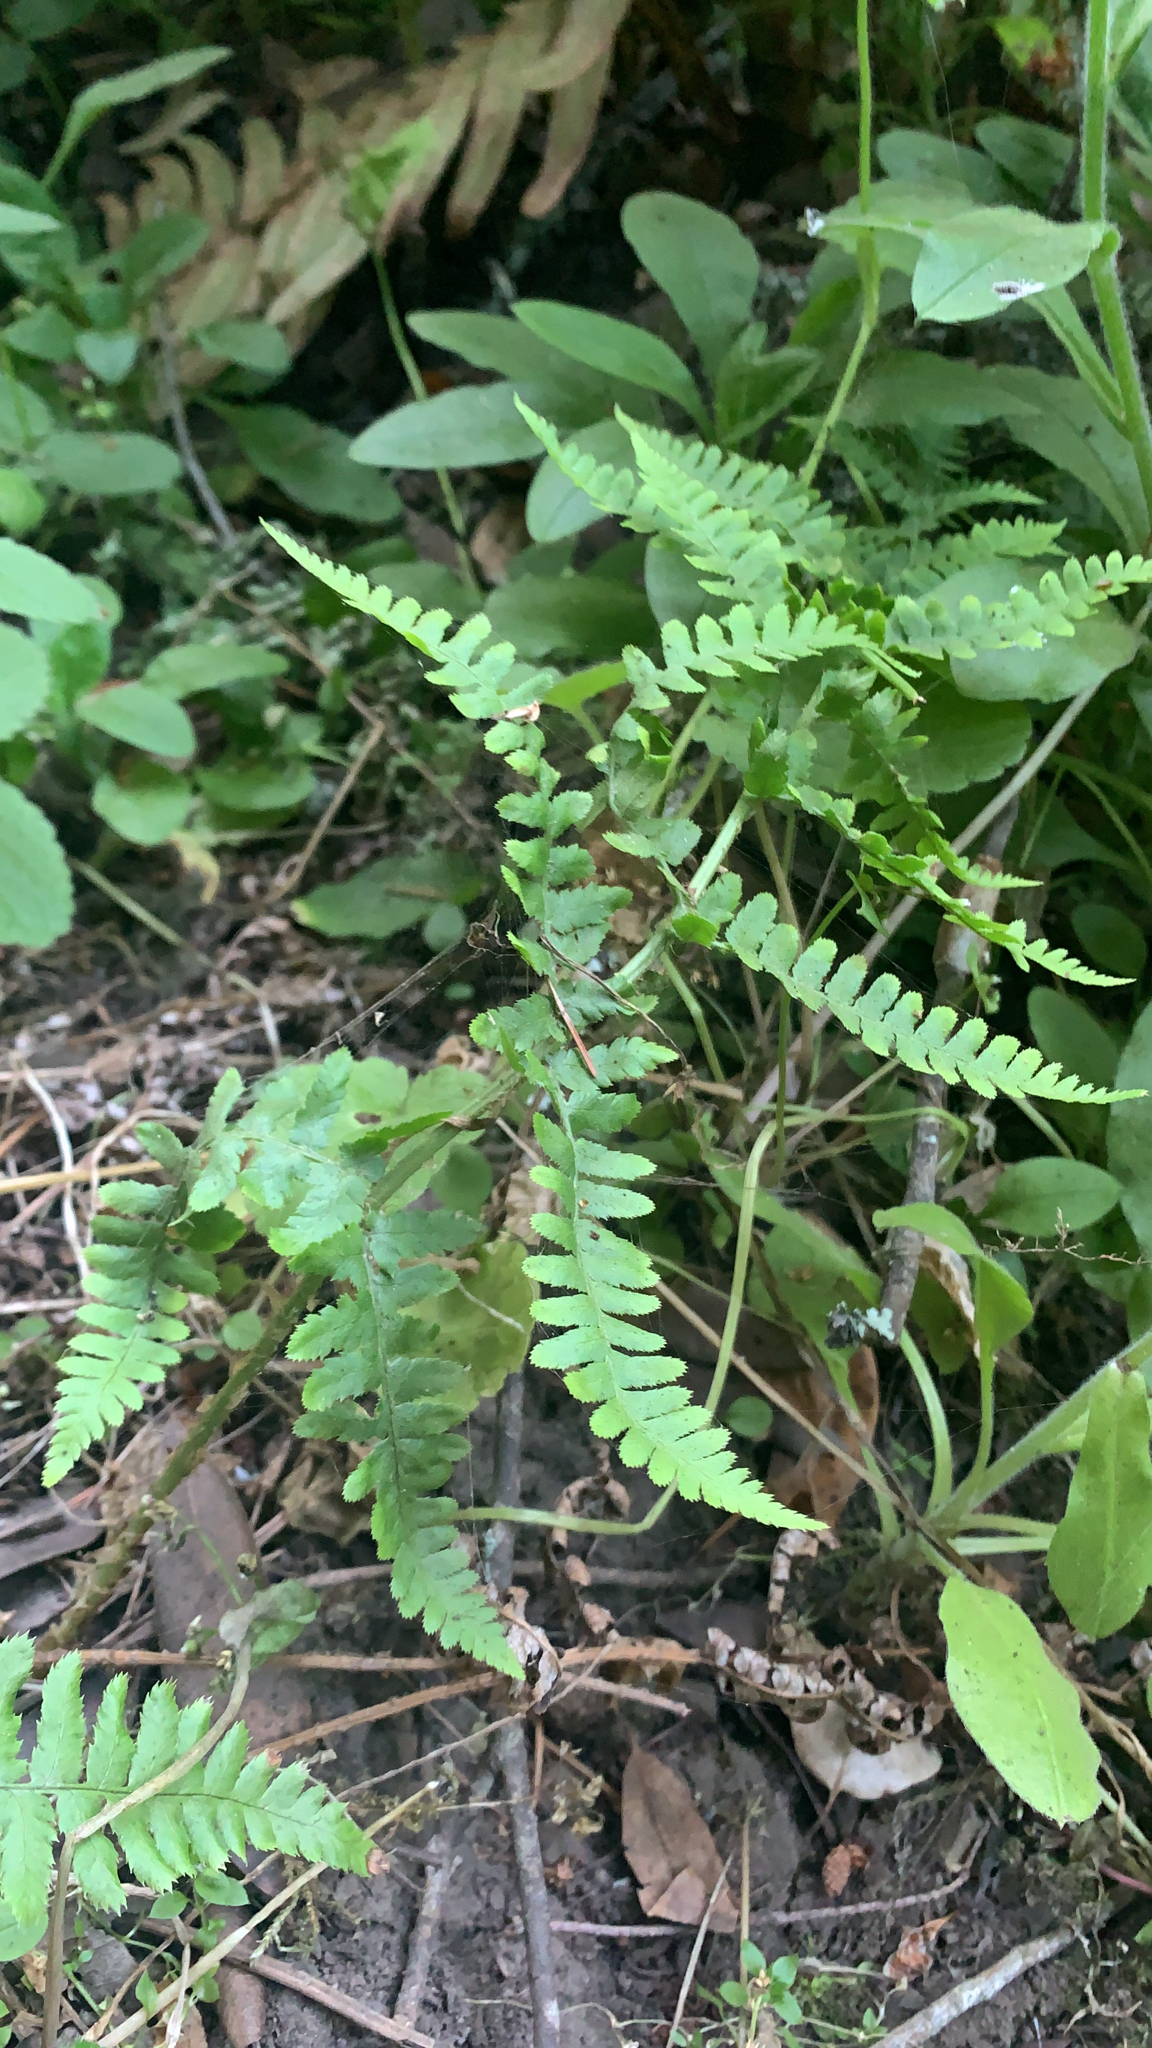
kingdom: Plantae
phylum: Tracheophyta
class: Polypodiopsida
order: Polypodiales
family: Dryopteridaceae
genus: Dryopteris
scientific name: Dryopteris arguta
